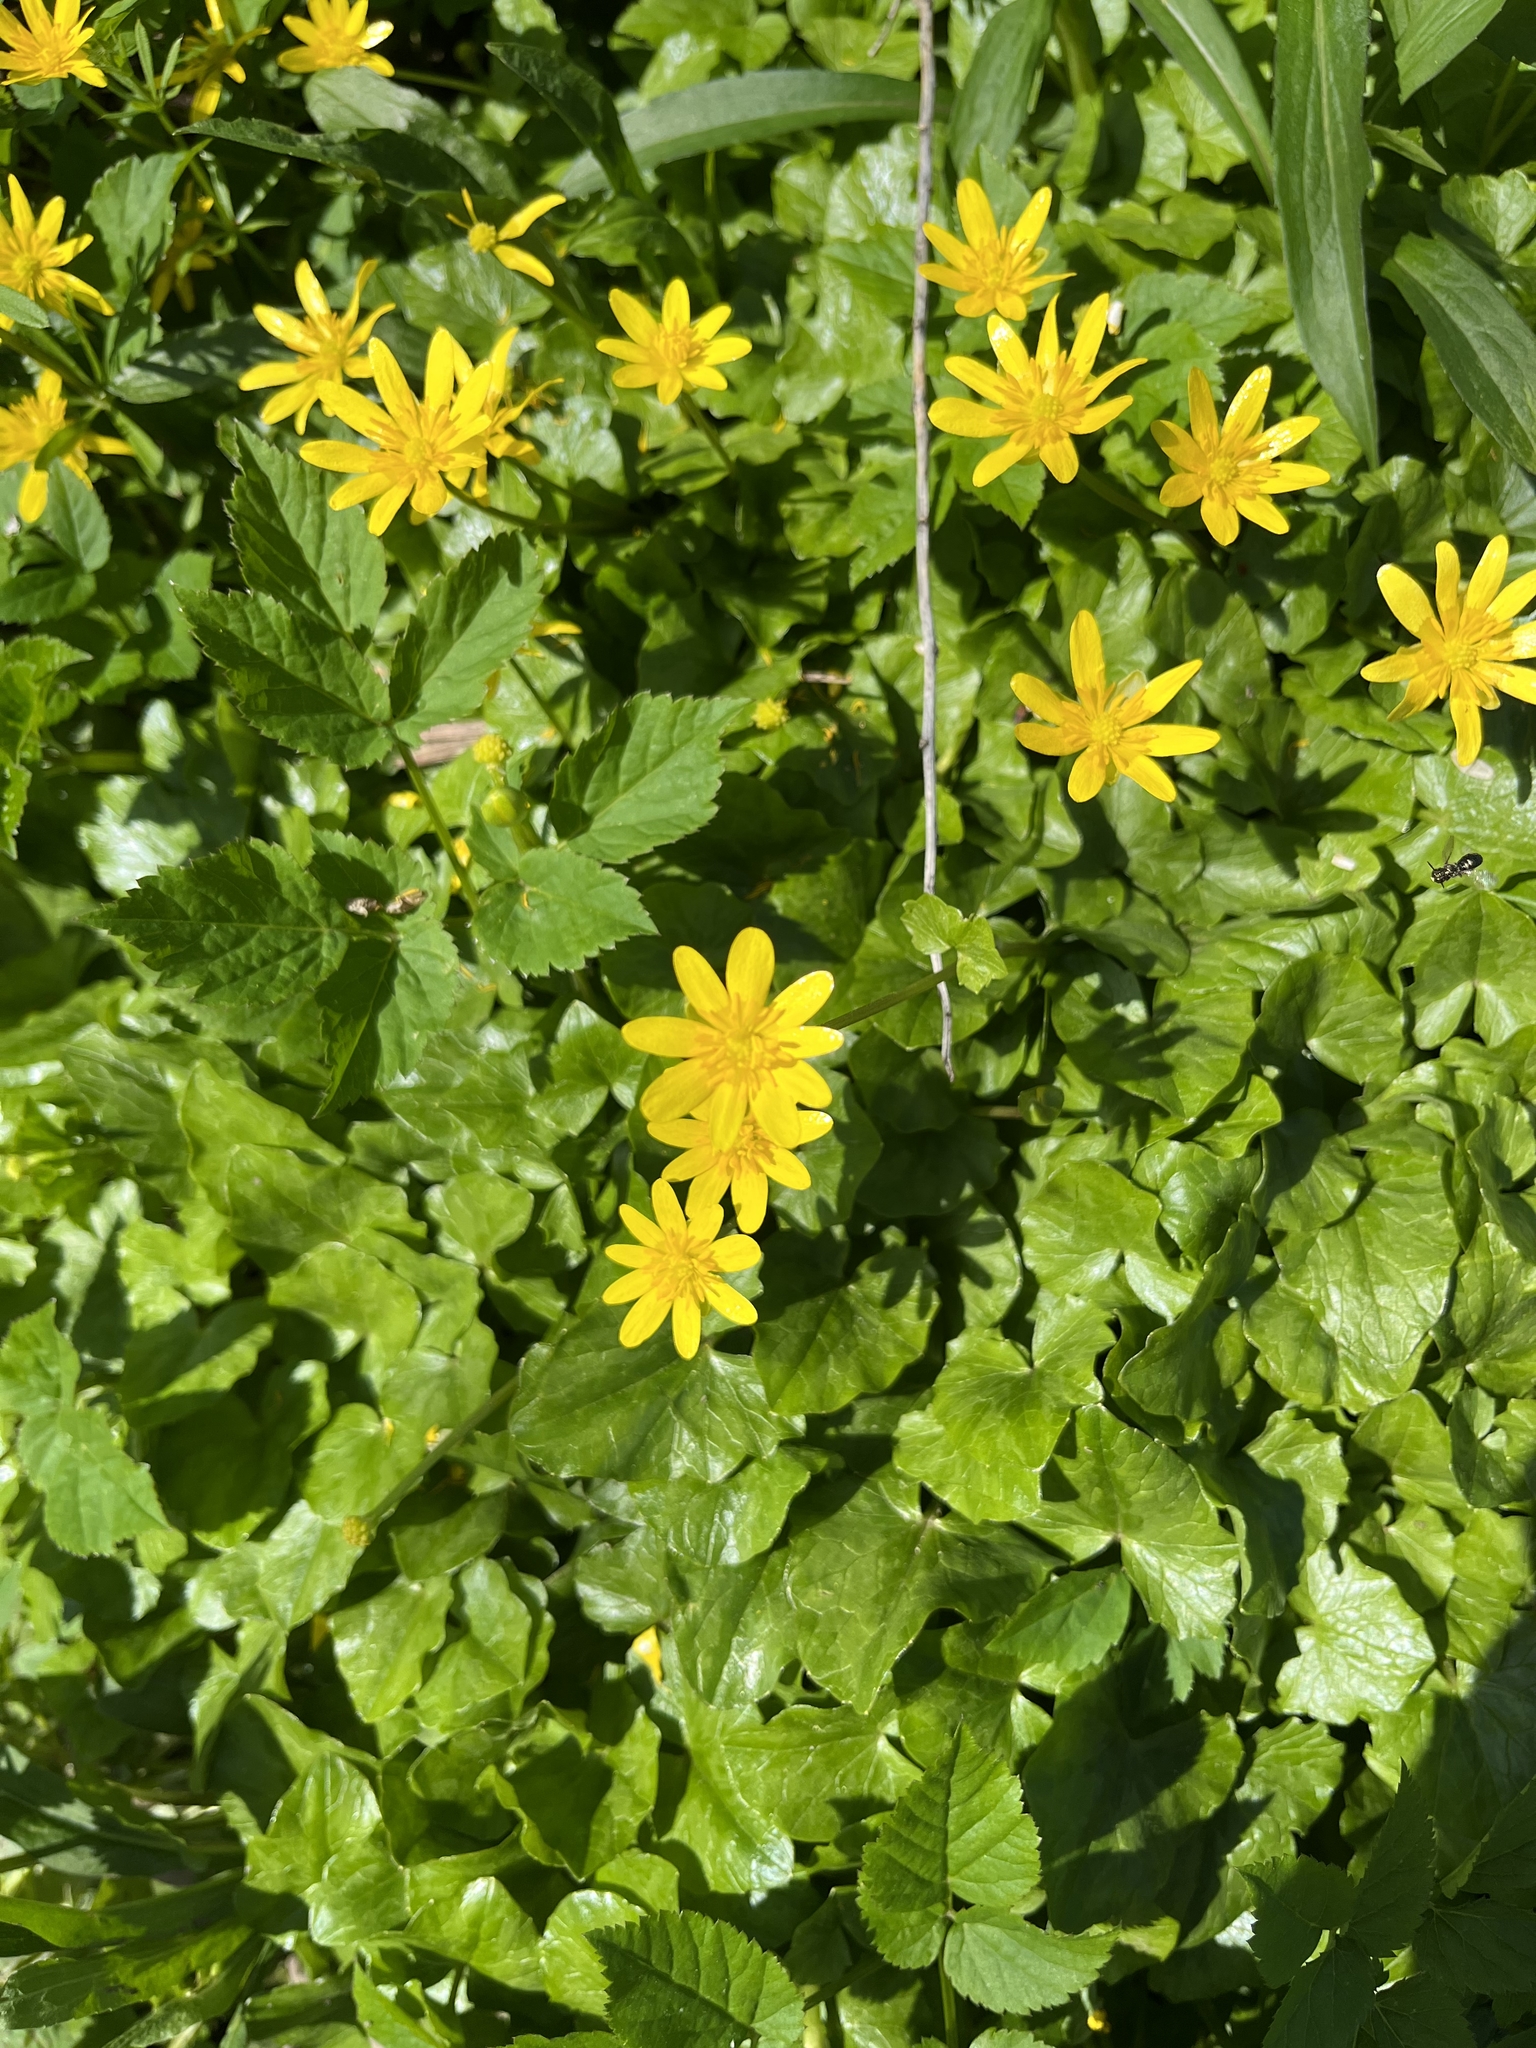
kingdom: Plantae
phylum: Tracheophyta
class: Magnoliopsida
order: Ranunculales
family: Ranunculaceae
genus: Ficaria
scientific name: Ficaria verna
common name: Lesser celandine
